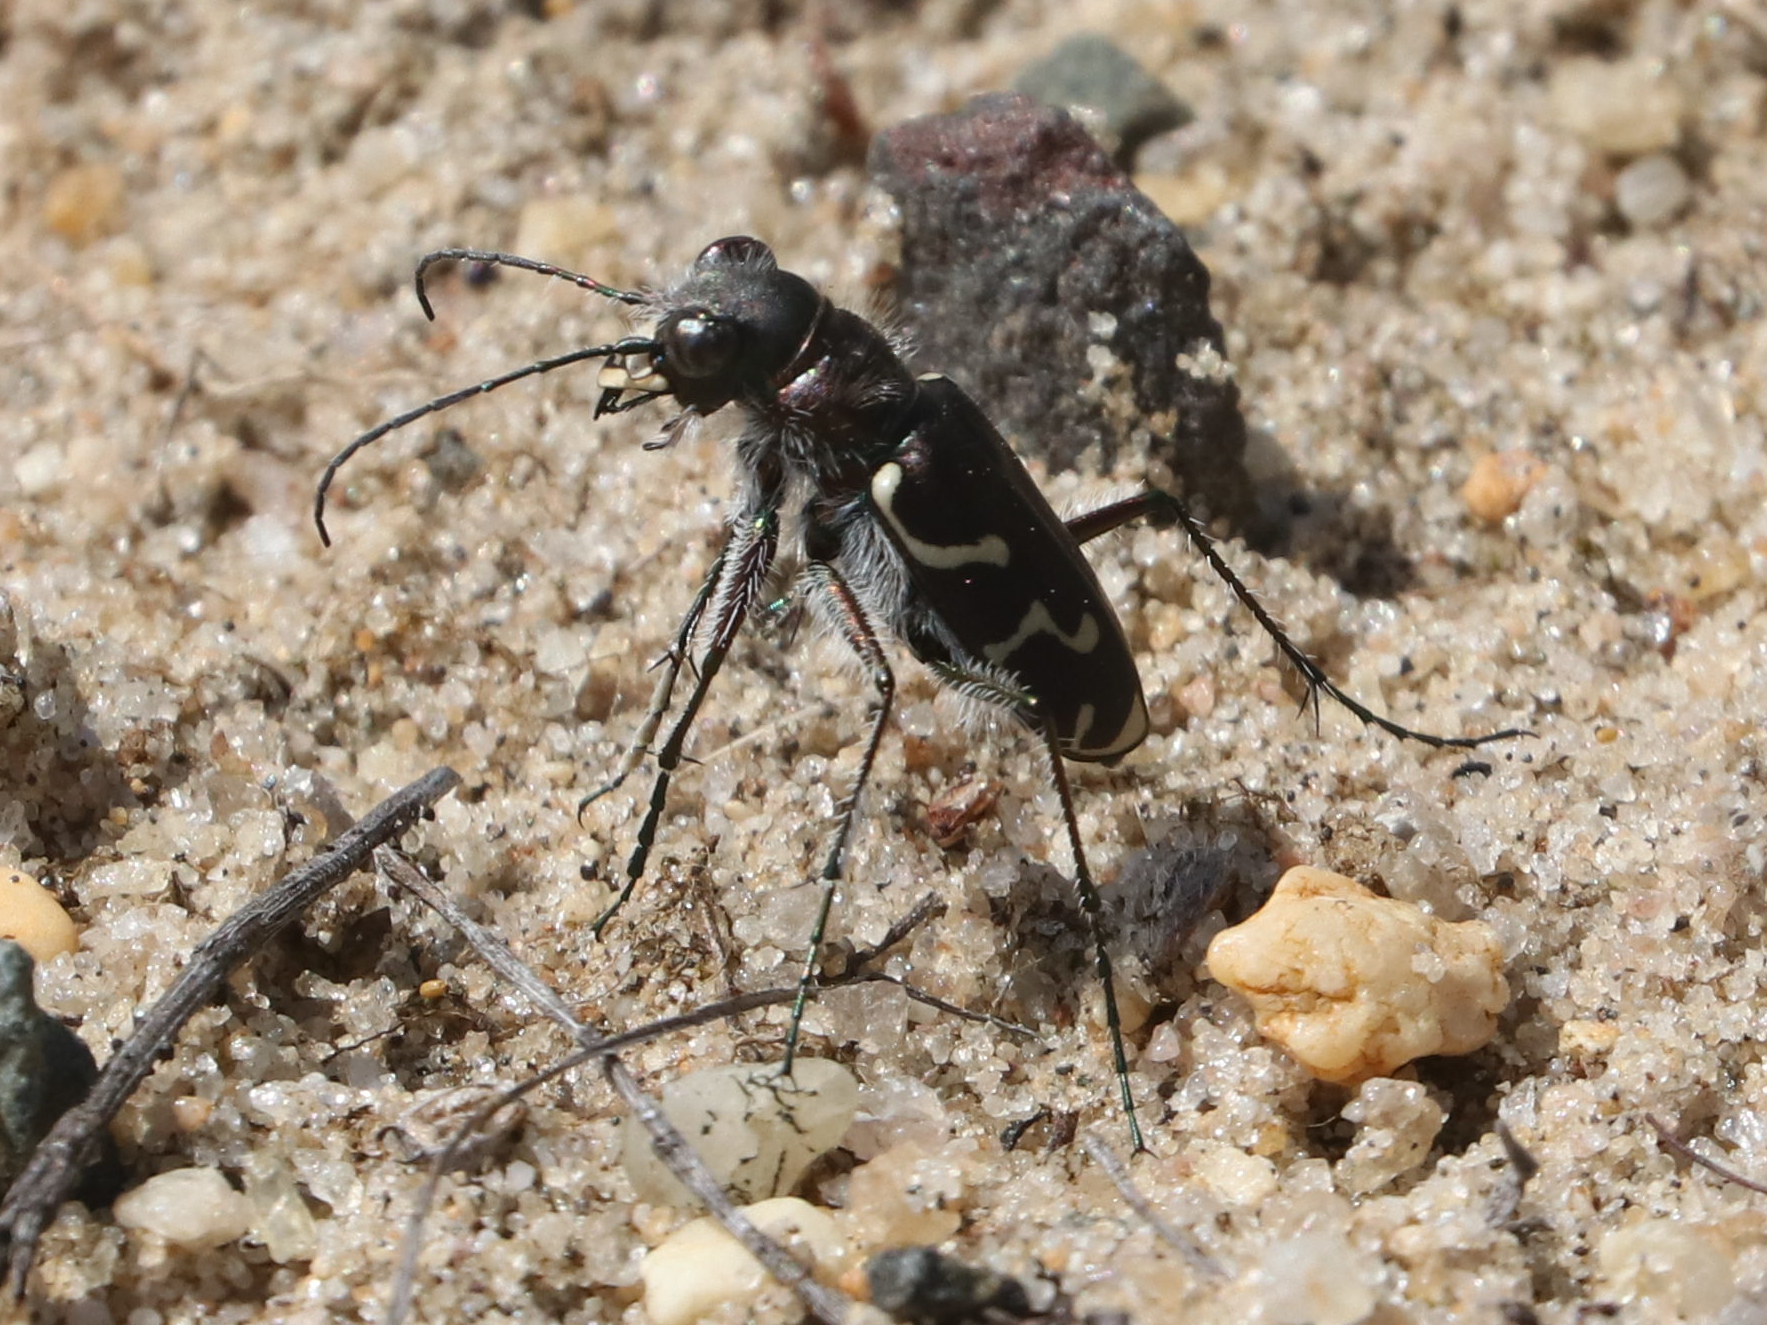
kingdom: Animalia
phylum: Arthropoda
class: Insecta
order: Coleoptera
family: Carabidae
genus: Cicindela
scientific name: Cicindela tranquebarica
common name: Oblique-lined tiger beetle
